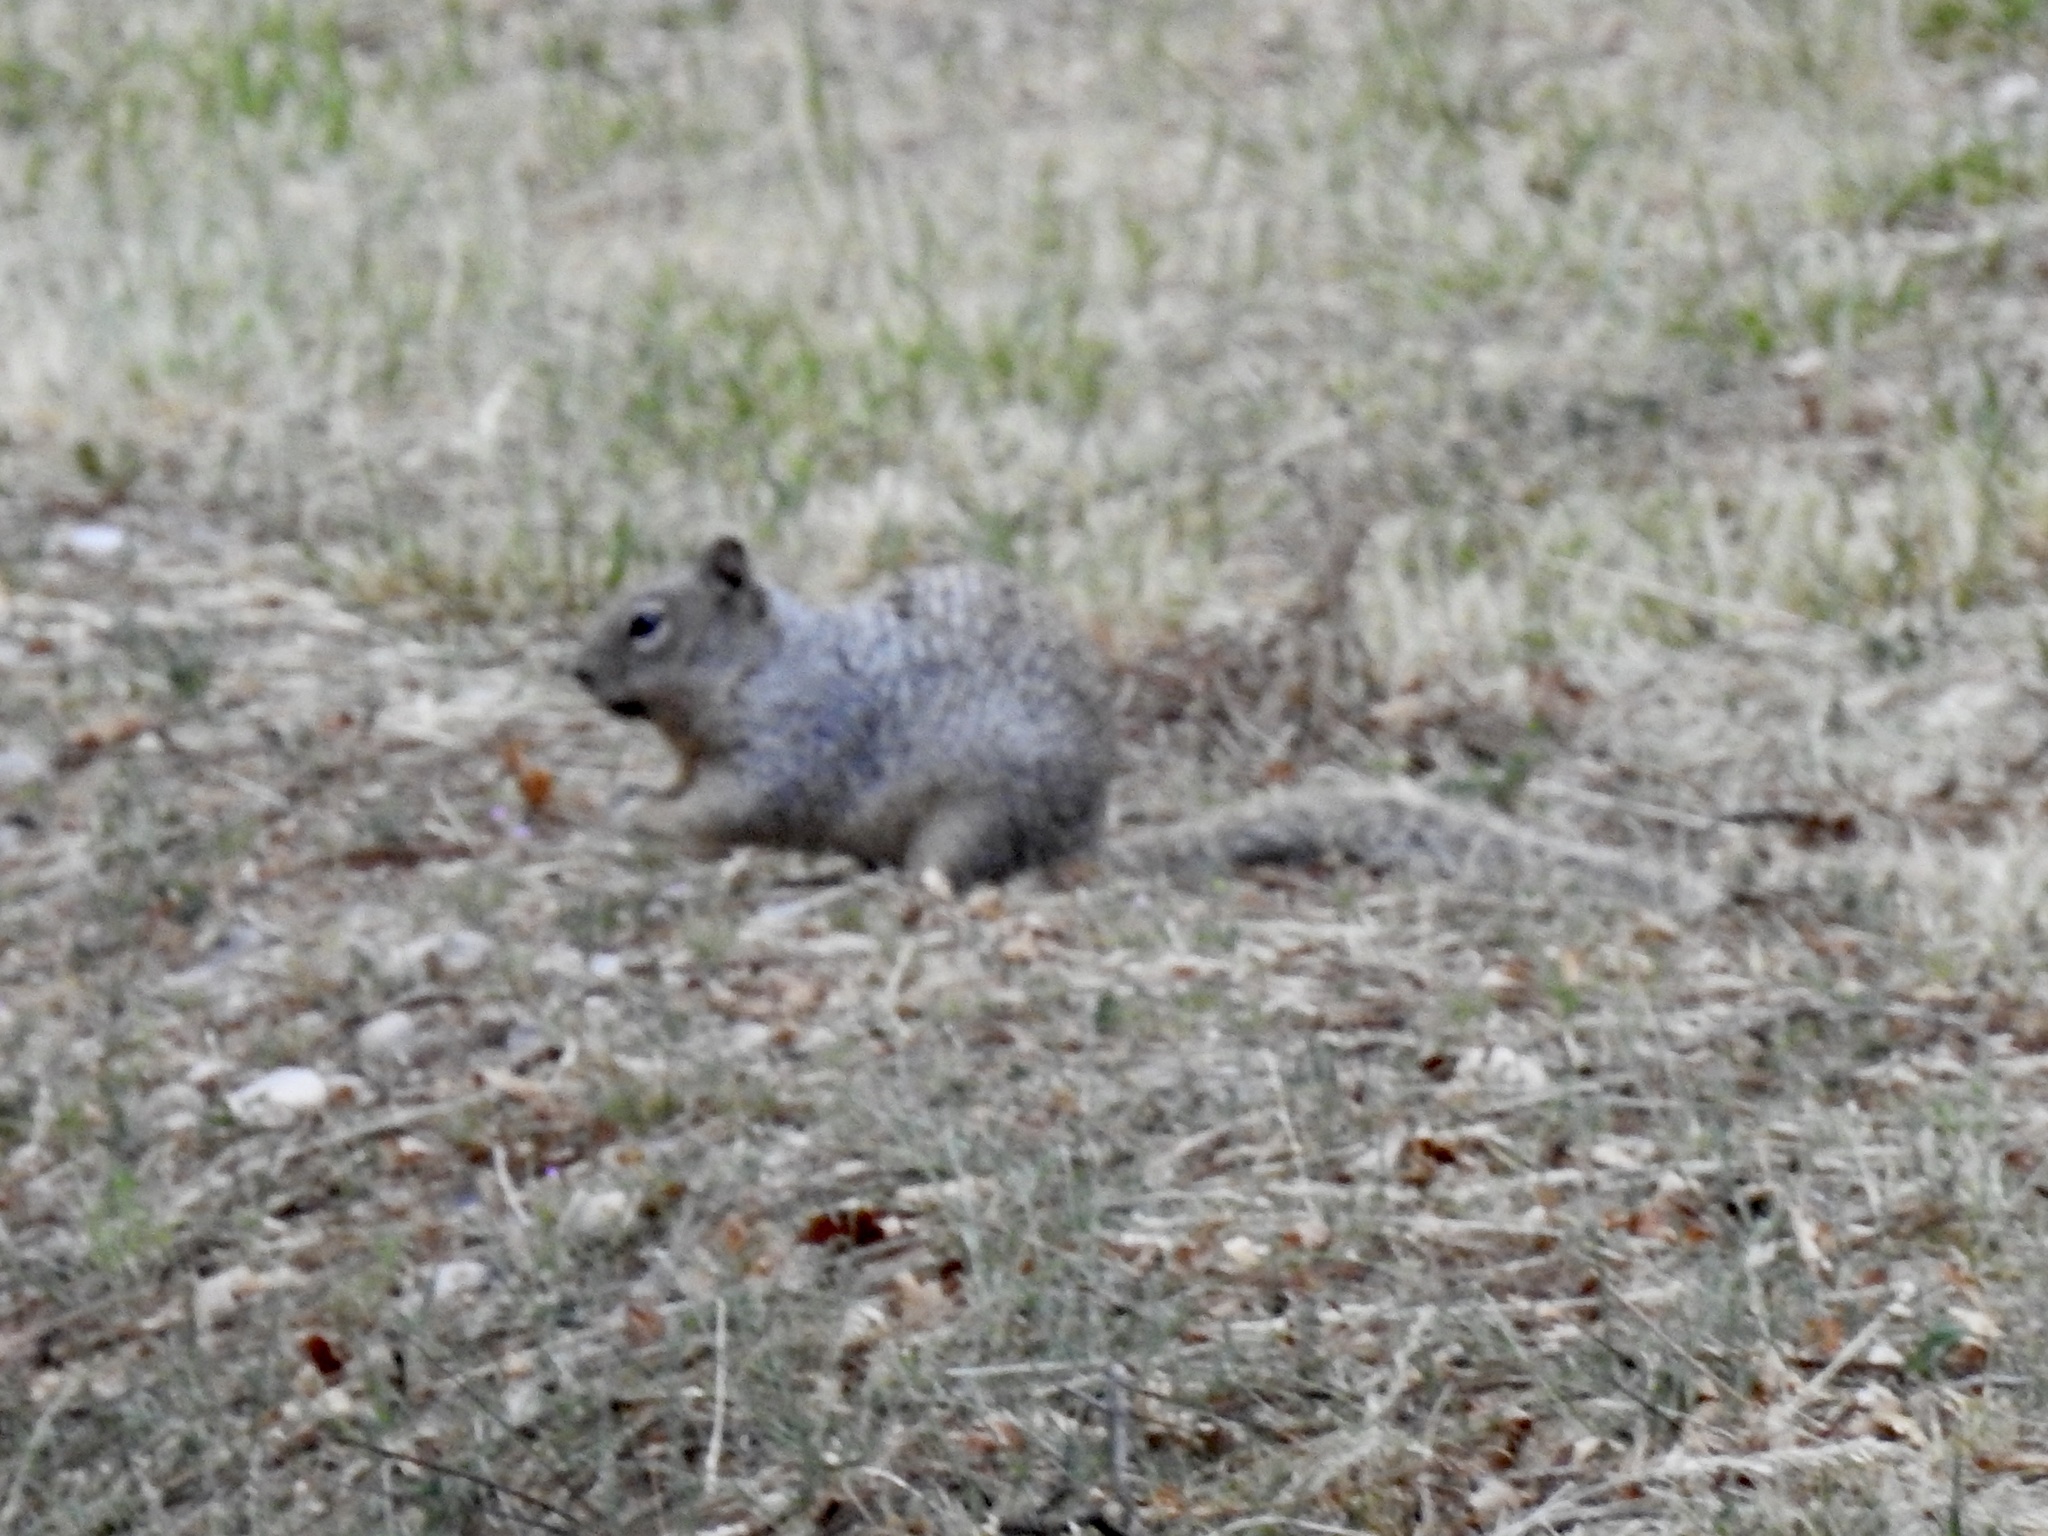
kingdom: Animalia
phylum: Chordata
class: Mammalia
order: Rodentia
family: Sciuridae
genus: Otospermophilus
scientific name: Otospermophilus variegatus
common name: Rock squirrel
